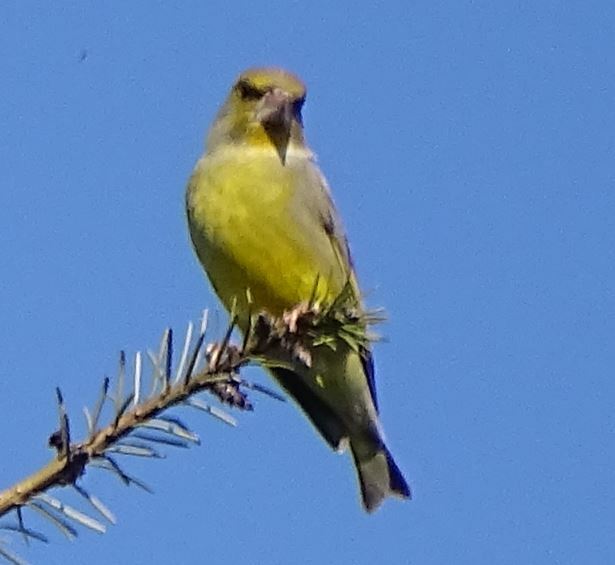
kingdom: Plantae
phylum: Tracheophyta
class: Liliopsida
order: Poales
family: Poaceae
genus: Chloris
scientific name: Chloris chloris
